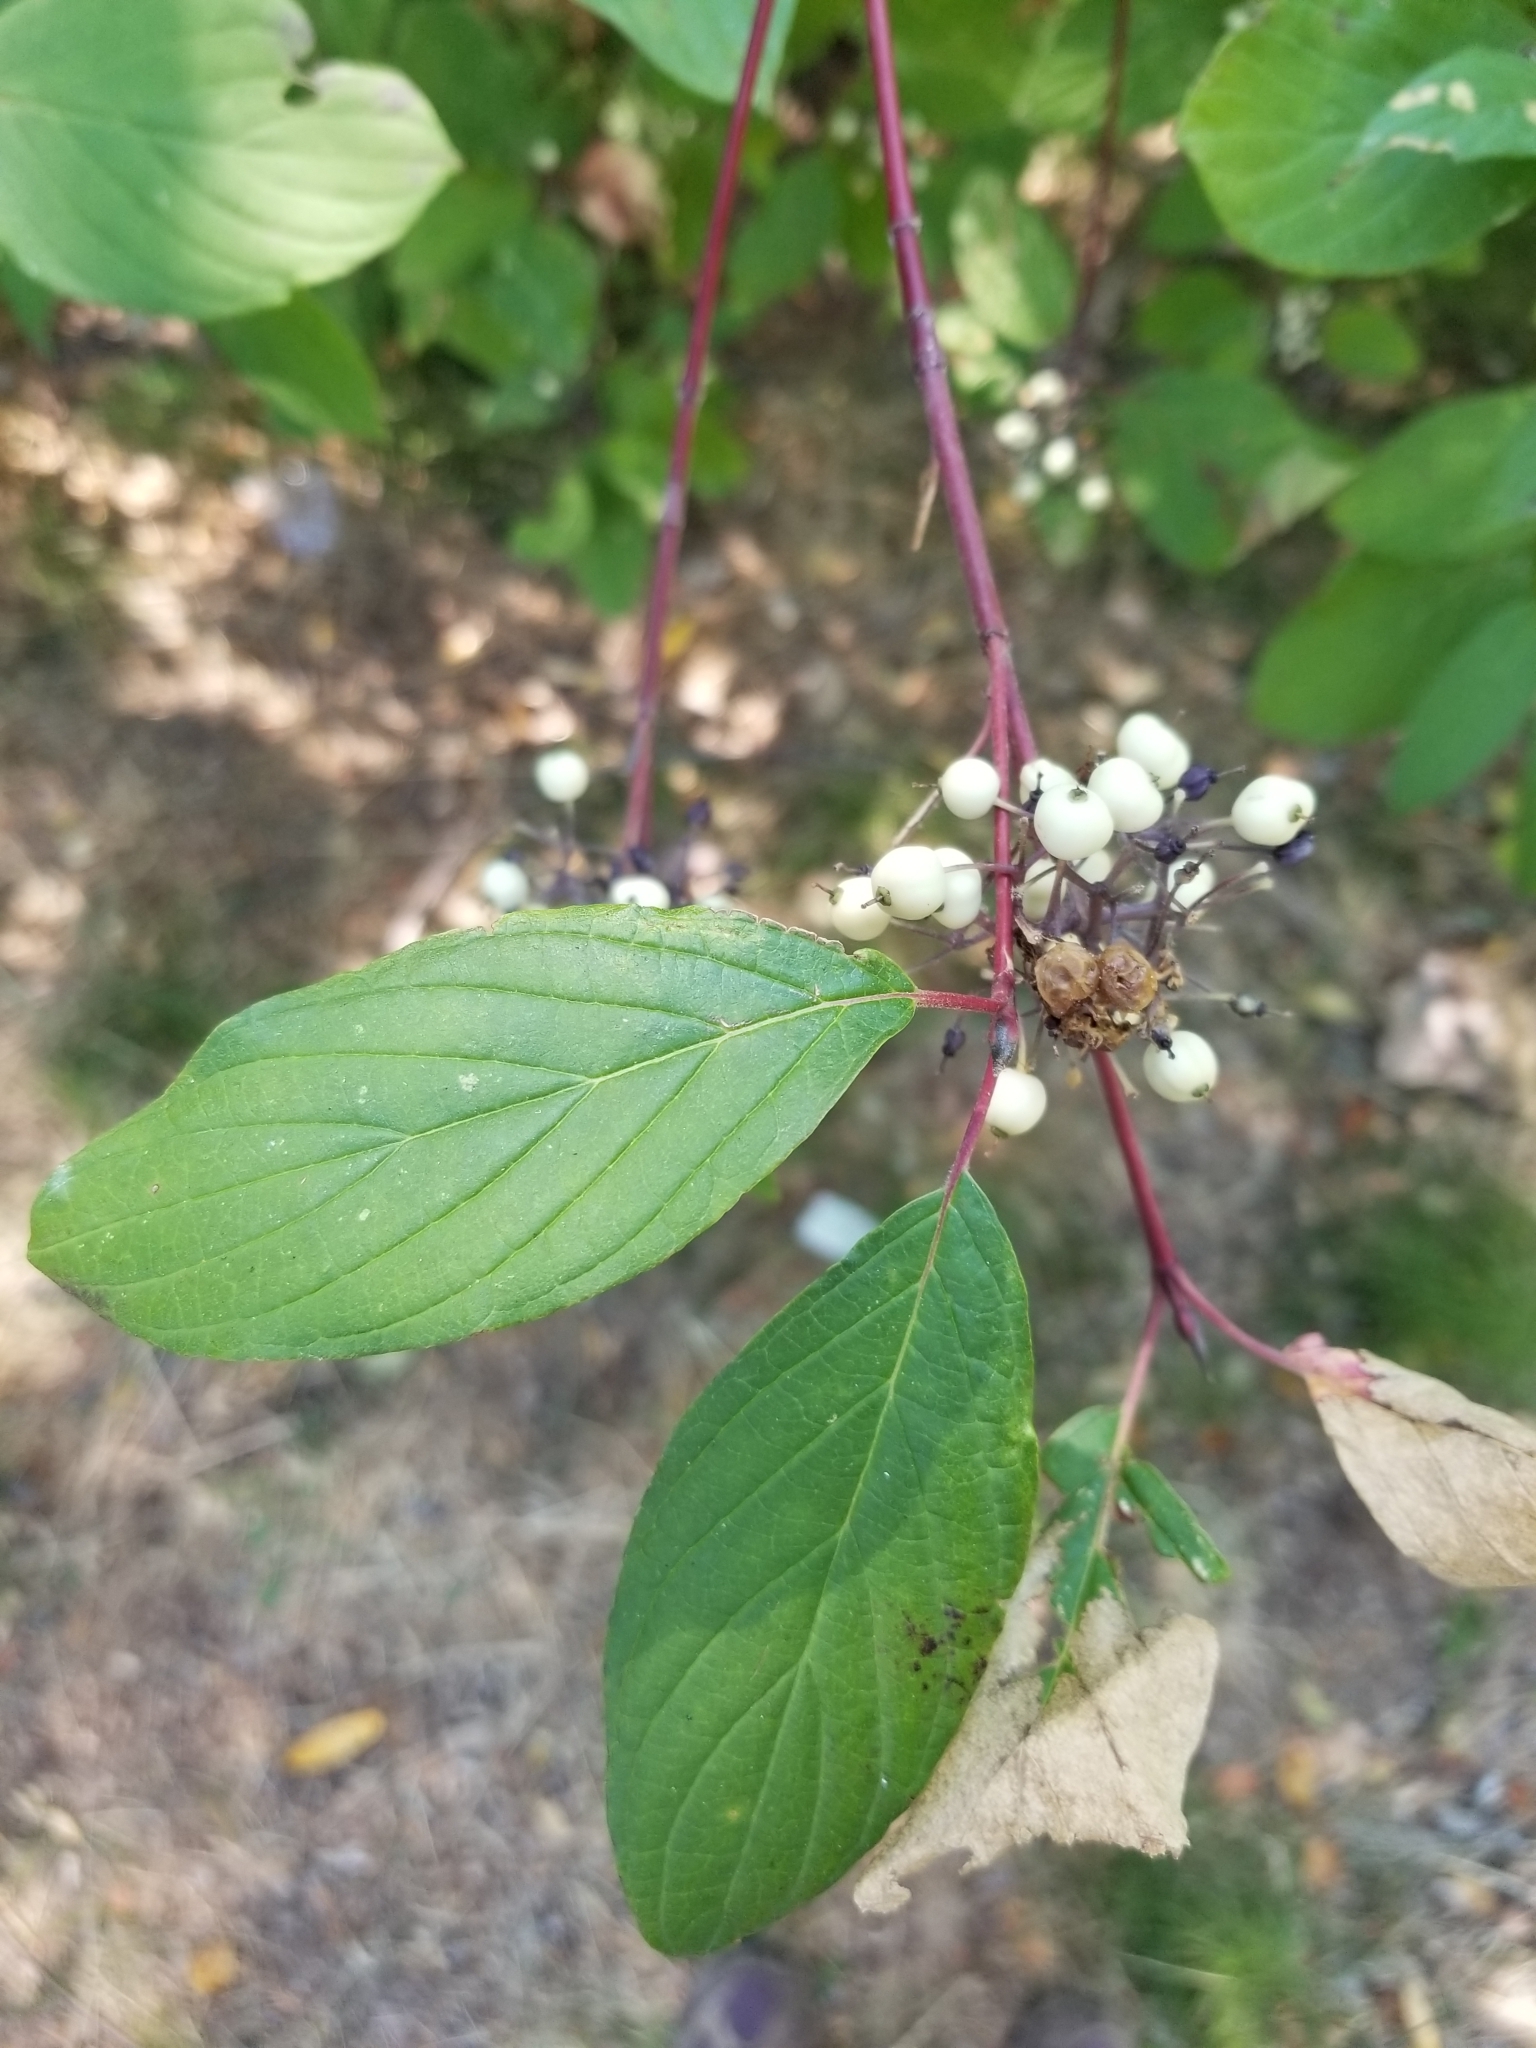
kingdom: Plantae
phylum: Tracheophyta
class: Magnoliopsida
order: Cornales
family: Cornaceae
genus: Cornus
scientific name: Cornus sericea
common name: Red-osier dogwood
